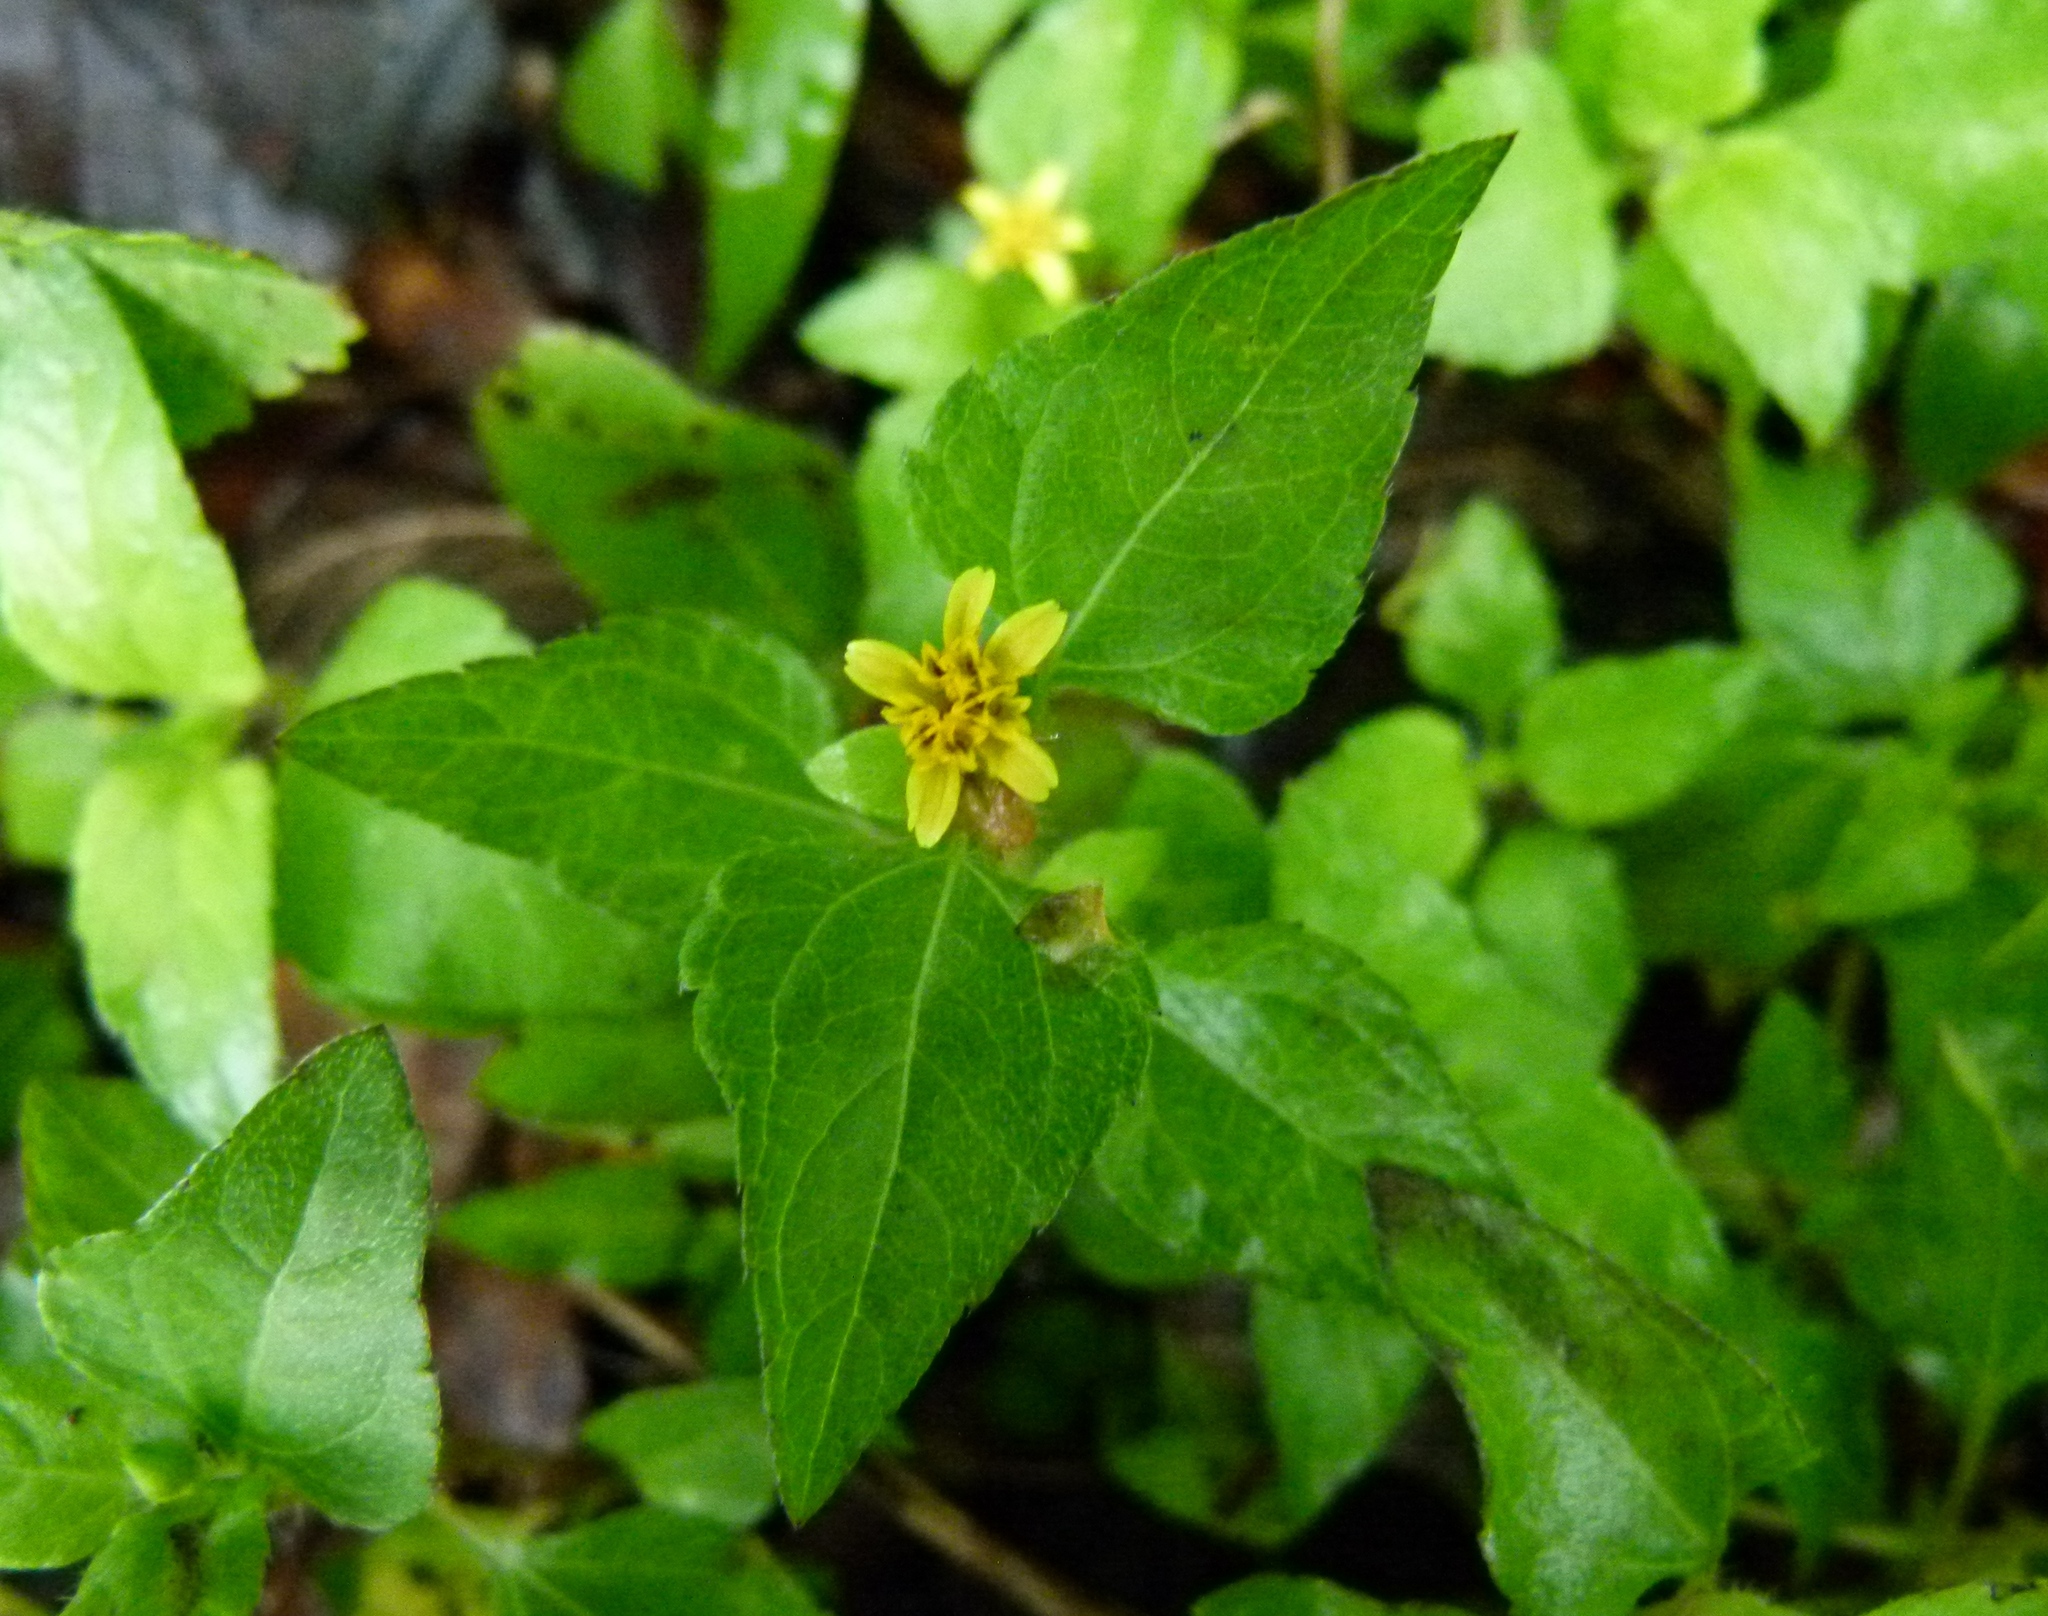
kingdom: Plantae
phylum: Tracheophyta
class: Magnoliopsida
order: Asterales
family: Asteraceae
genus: Acmella
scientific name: Acmella repens
